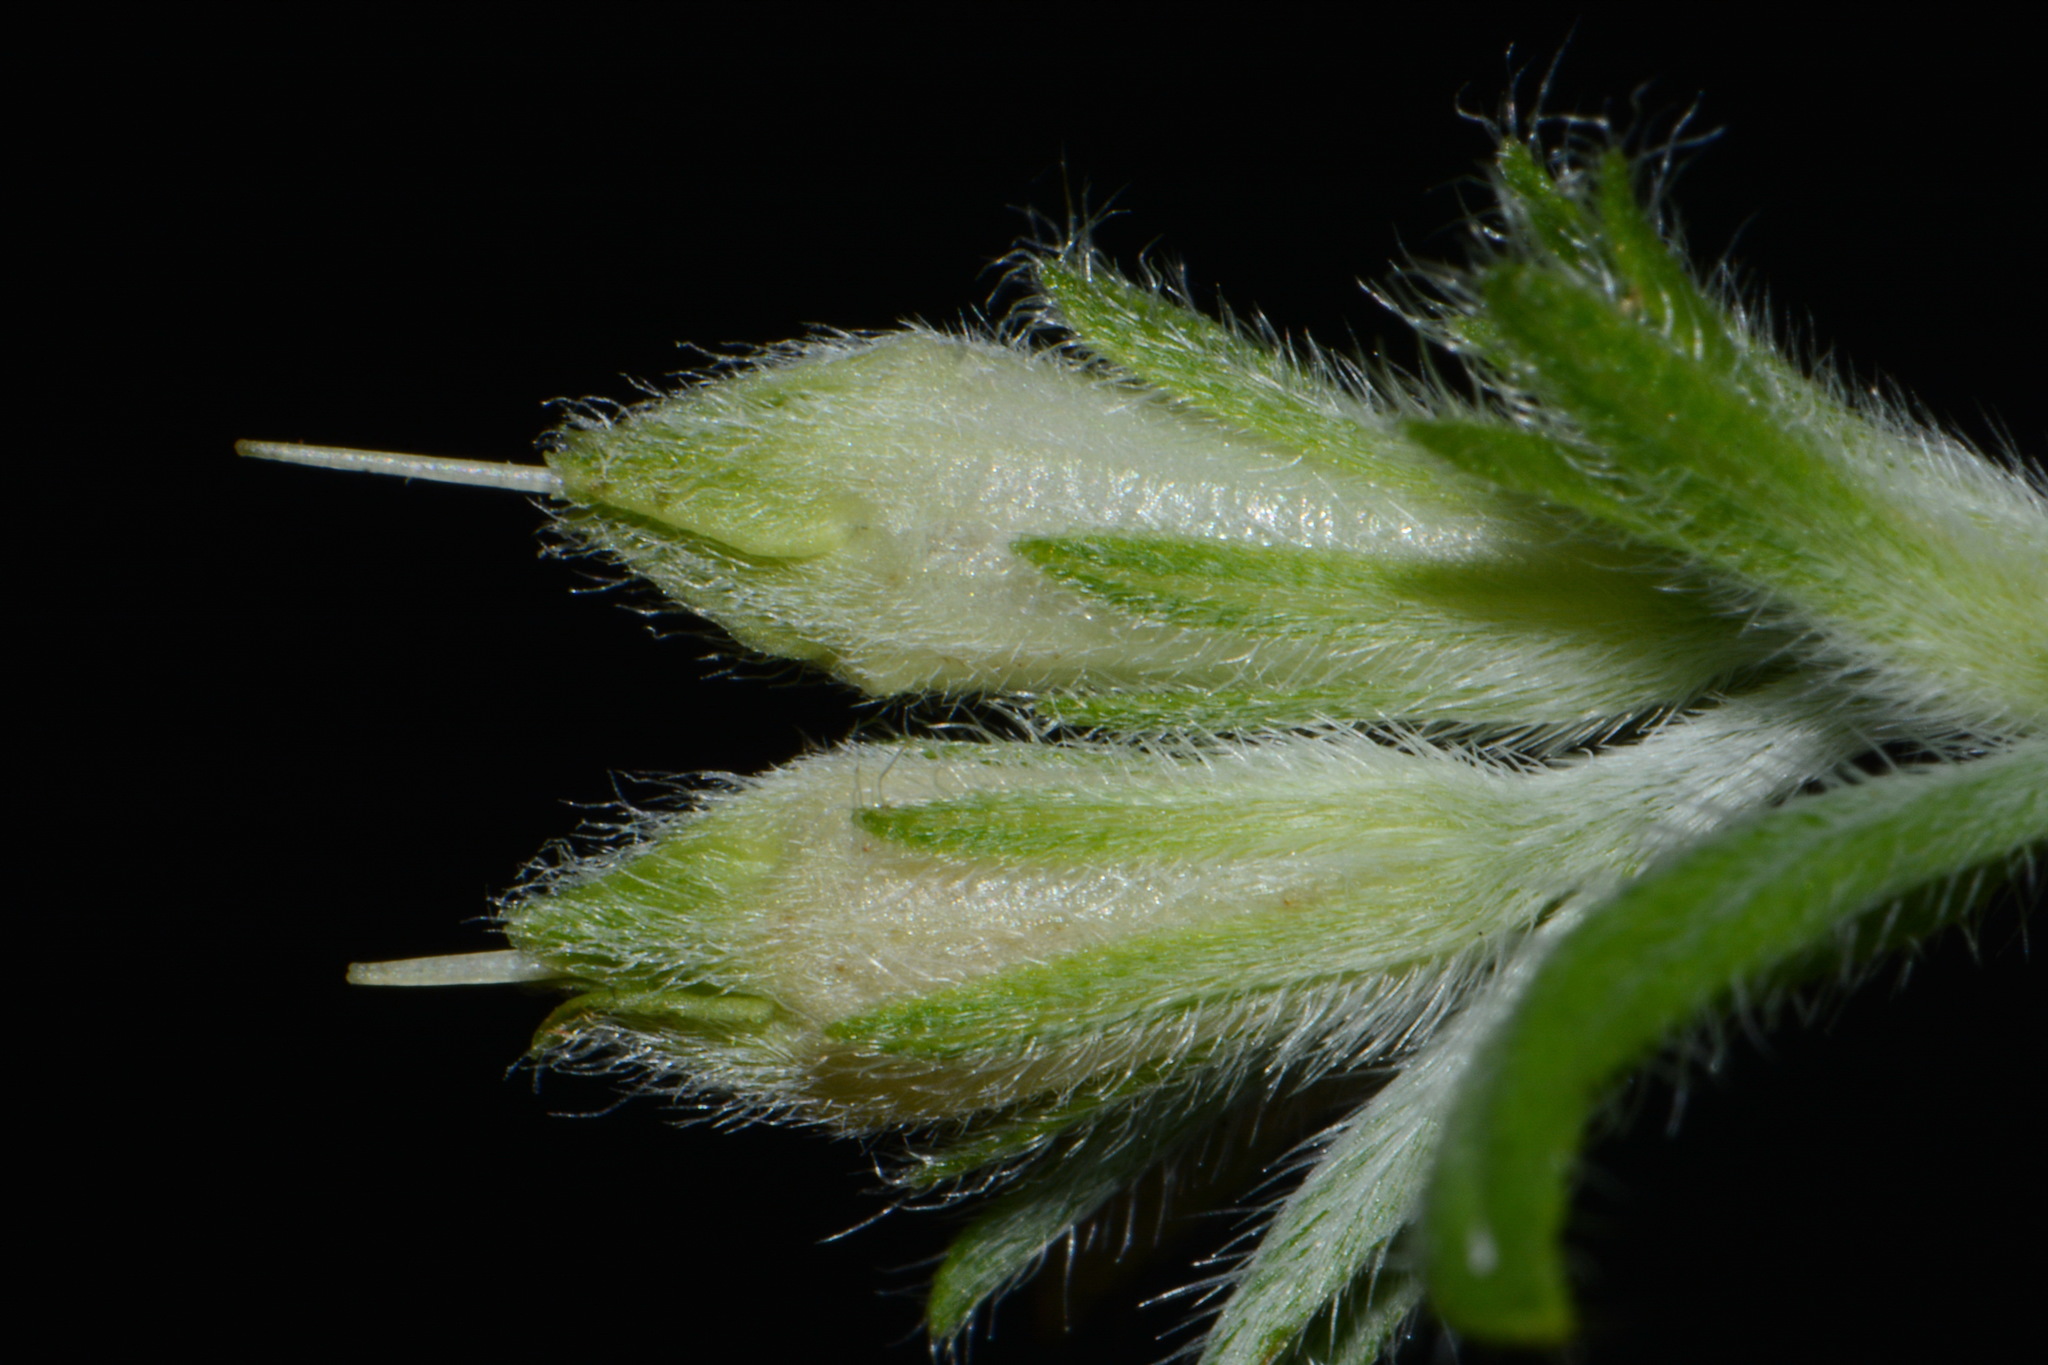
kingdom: Plantae
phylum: Tracheophyta
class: Magnoliopsida
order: Boraginales
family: Boraginaceae
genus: Lithospermum
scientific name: Lithospermum molle
